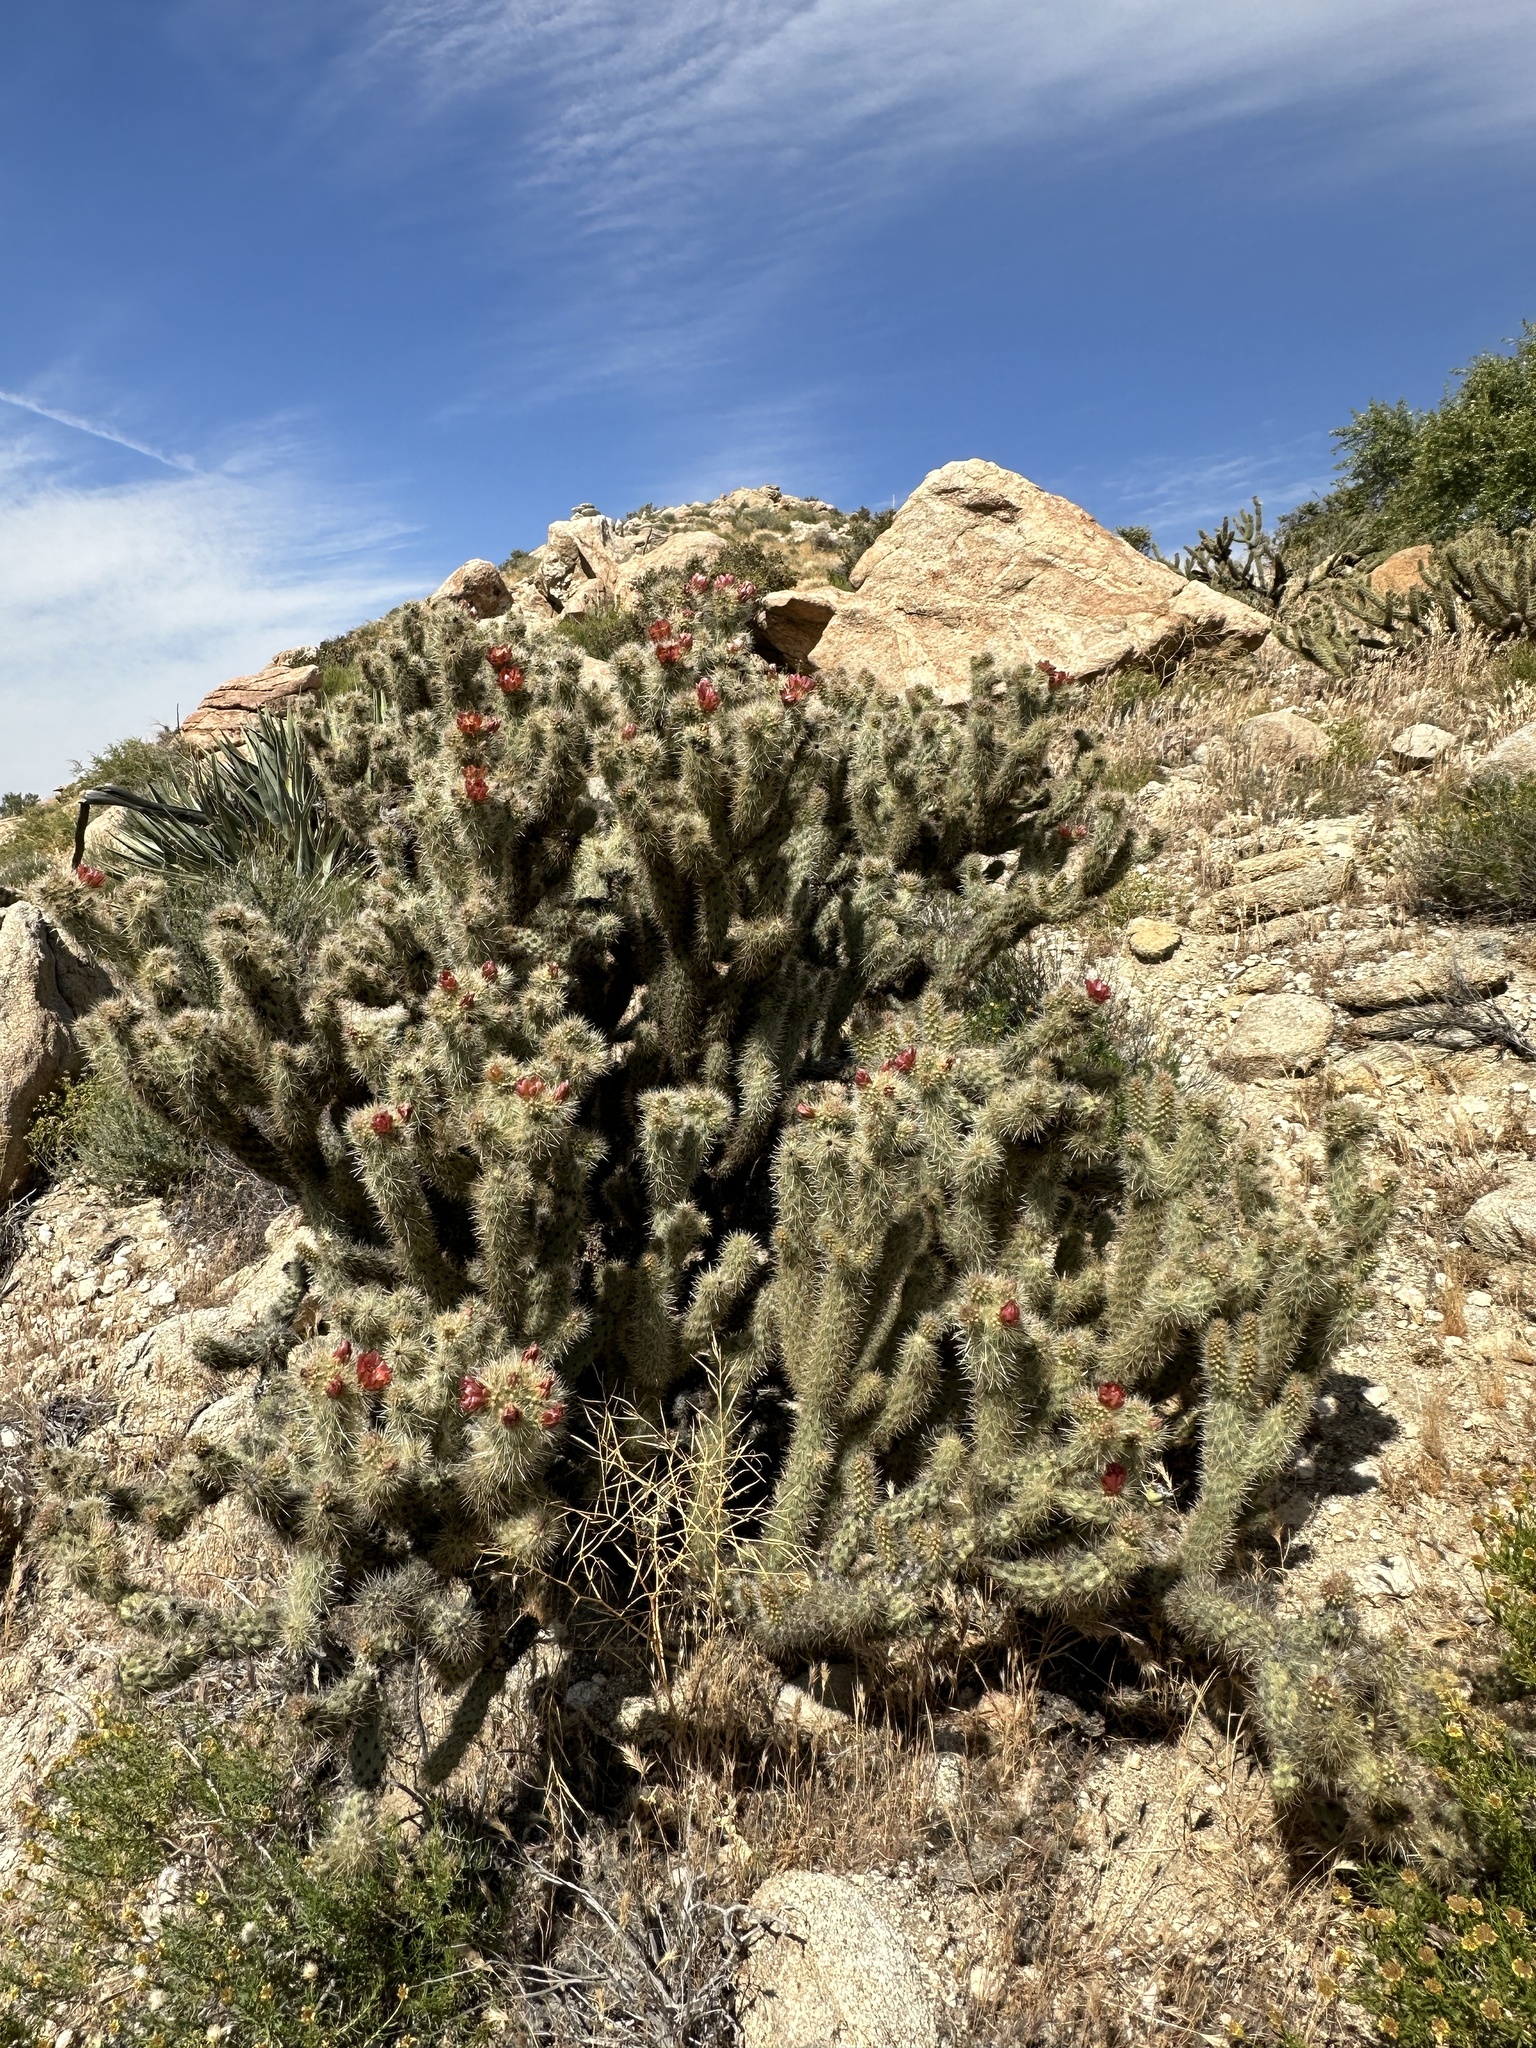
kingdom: Plantae
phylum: Tracheophyta
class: Magnoliopsida
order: Caryophyllales
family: Cactaceae
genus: Cylindropuntia
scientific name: Cylindropuntia wolfii
